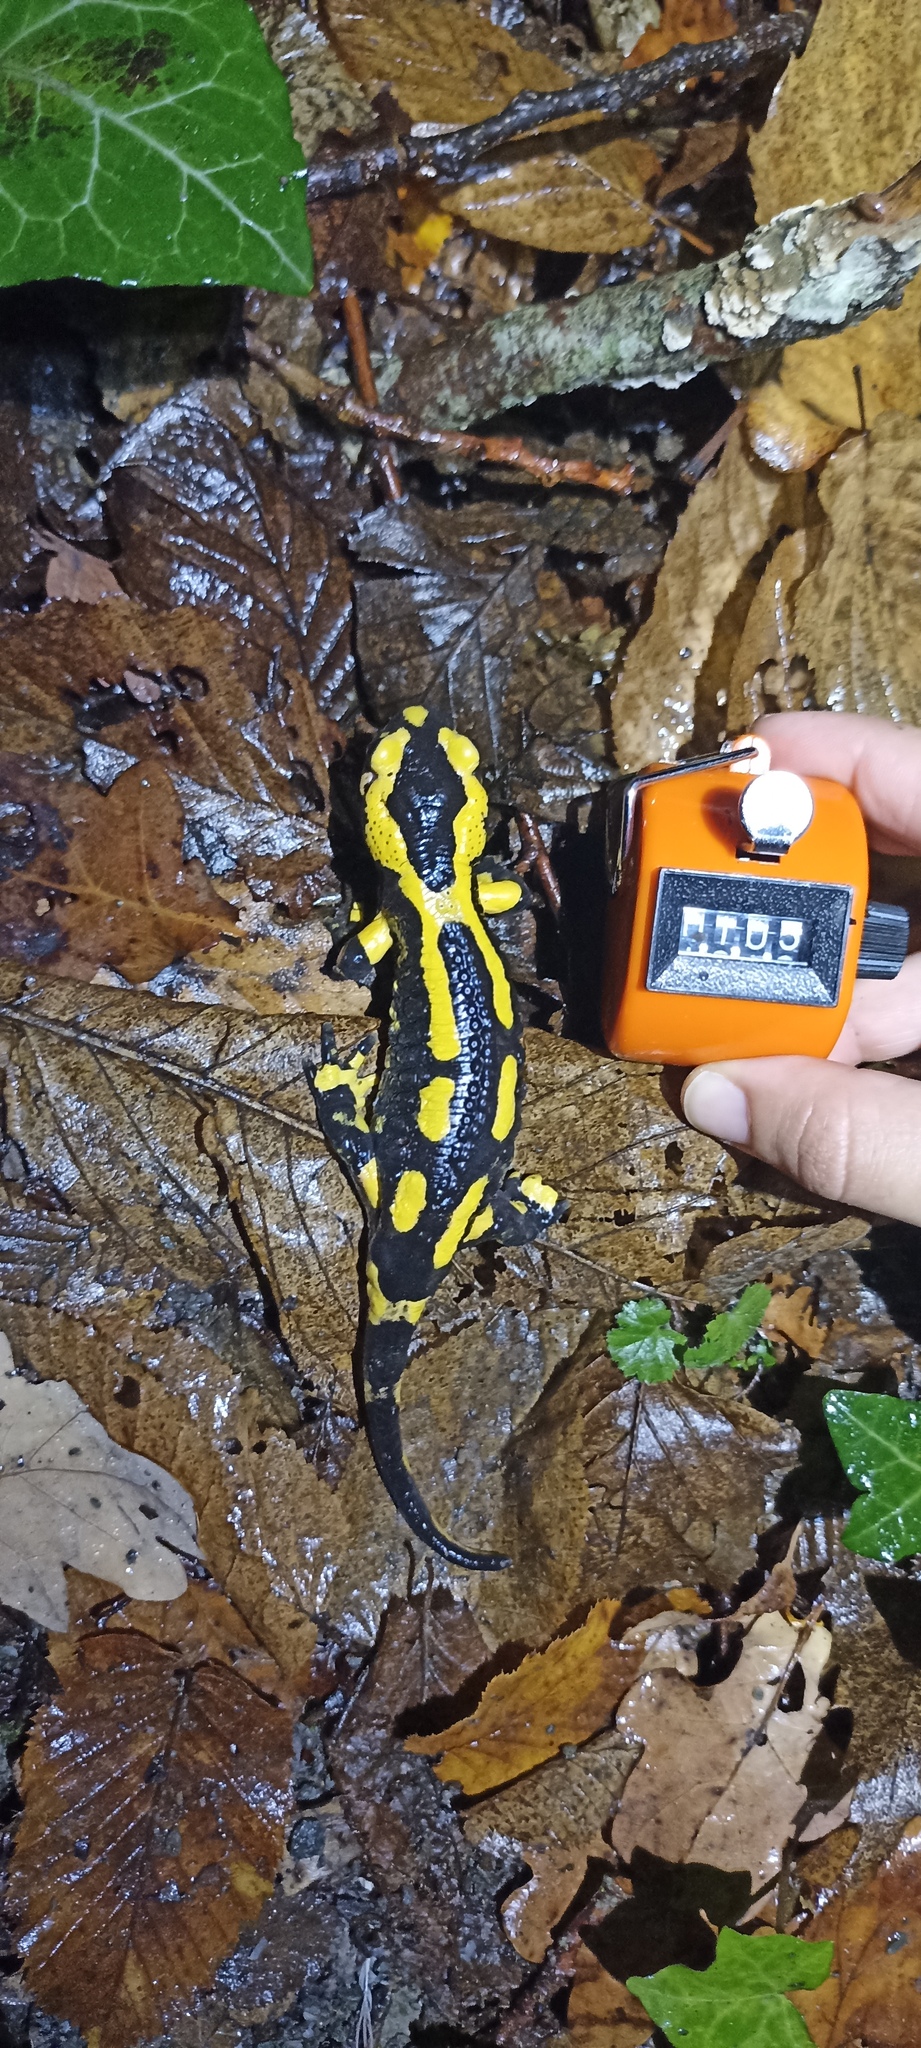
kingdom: Animalia
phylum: Chordata
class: Amphibia
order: Caudata
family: Salamandridae
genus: Salamandra
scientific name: Salamandra salamandra
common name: Fire salamander
